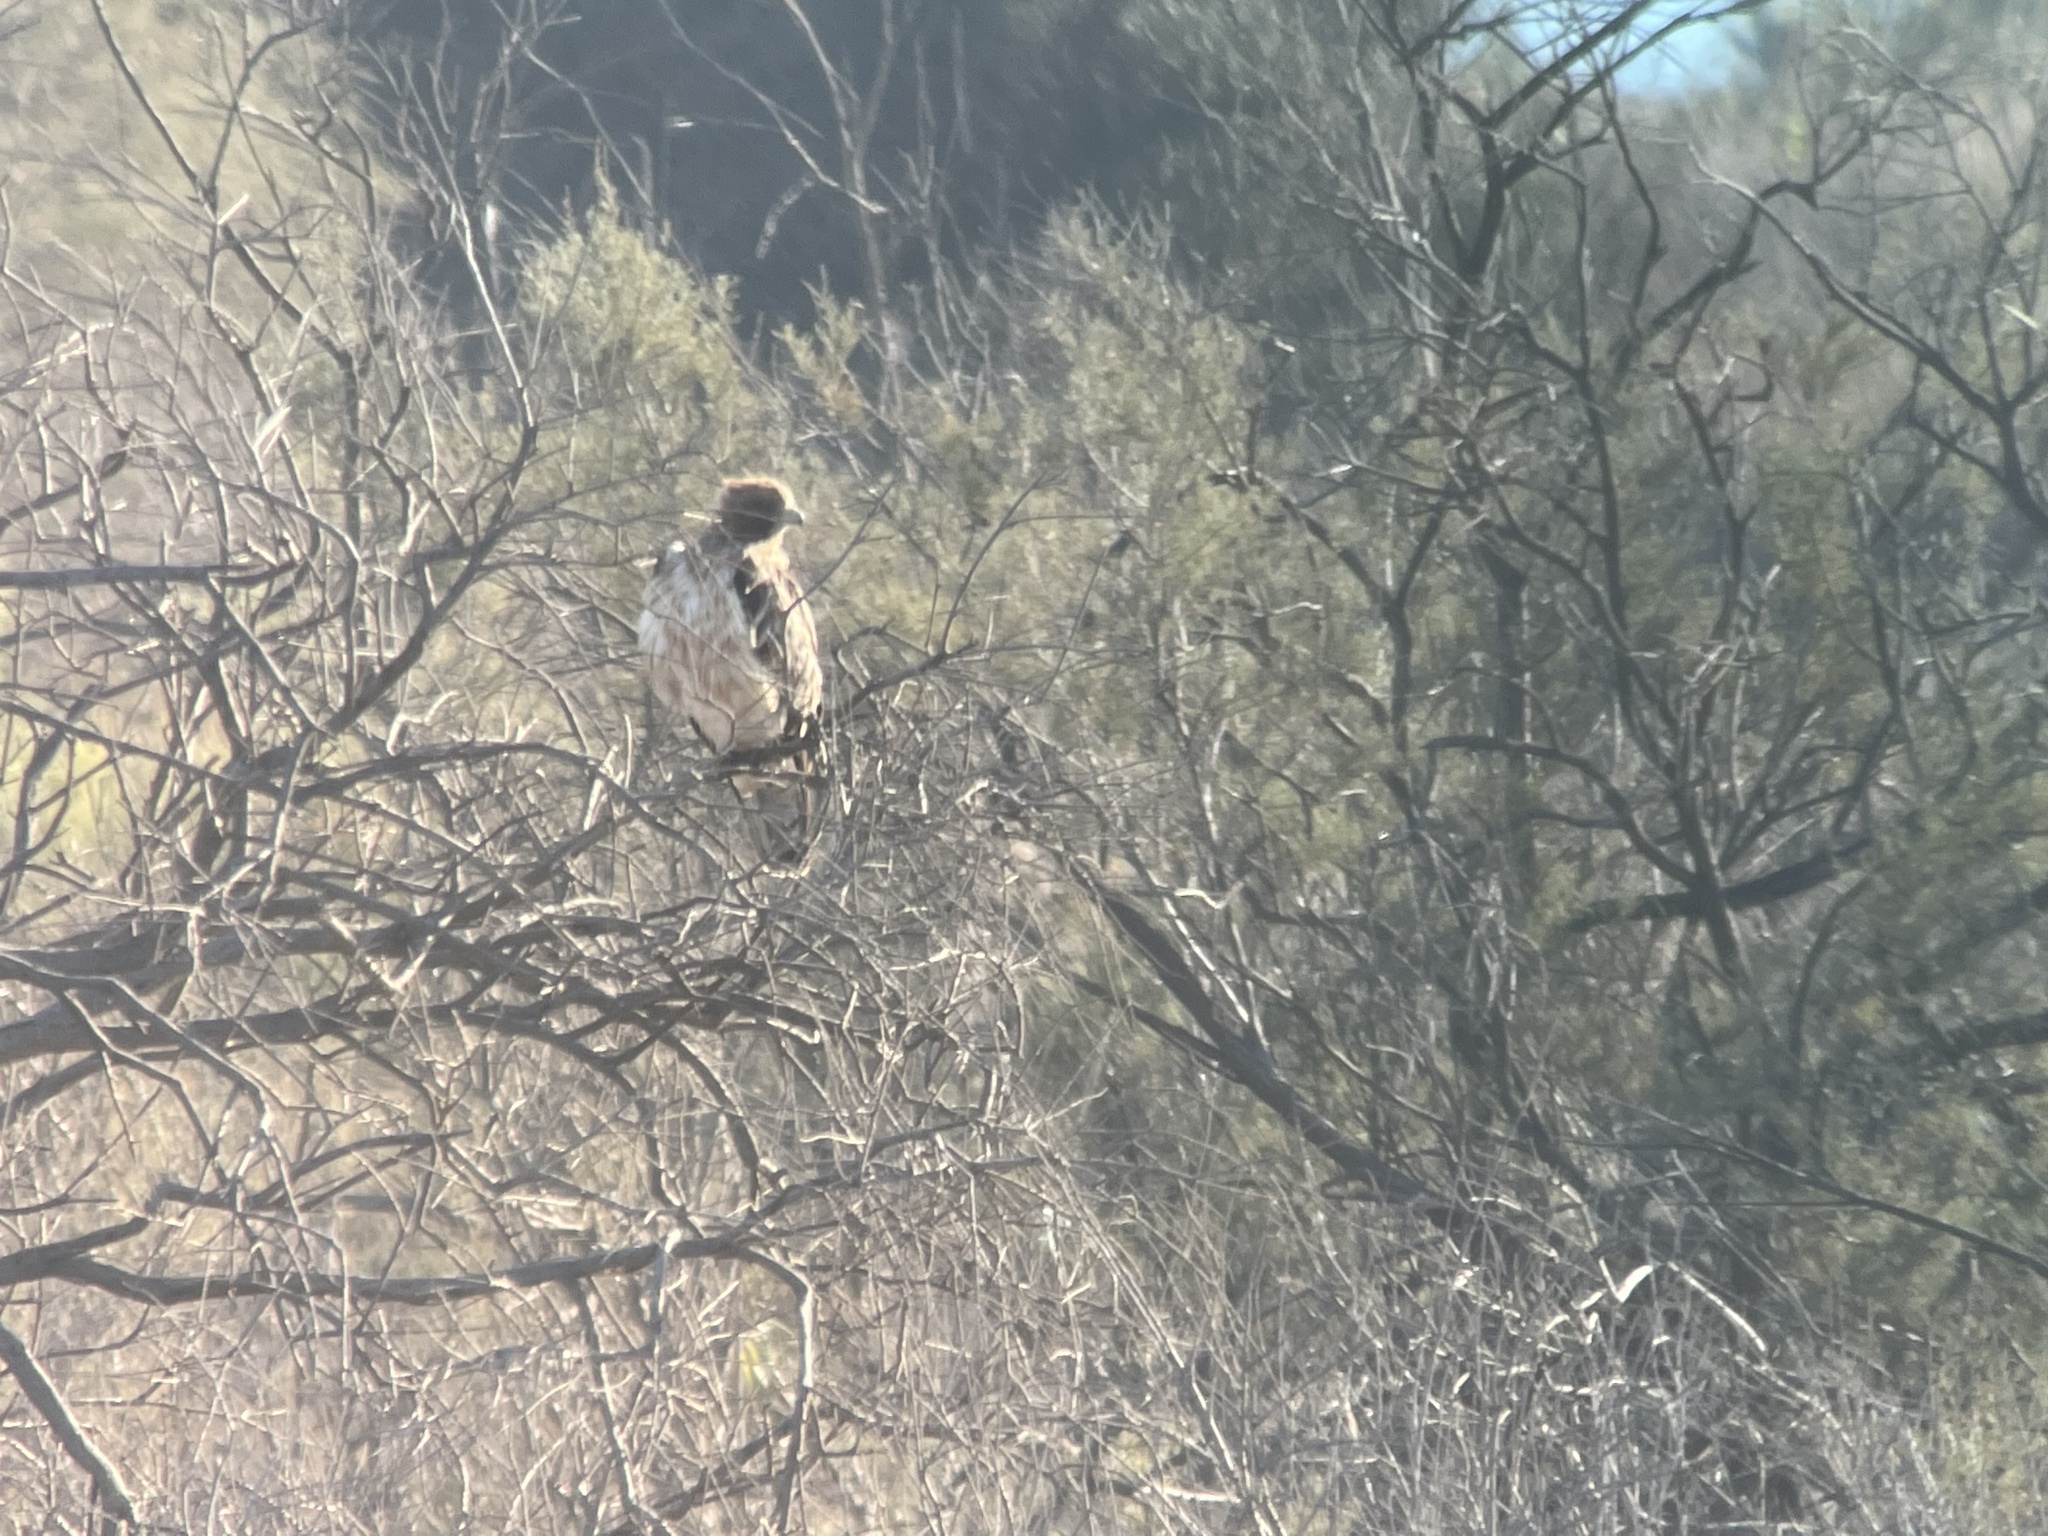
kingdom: Animalia
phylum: Chordata
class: Aves
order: Accipitriformes
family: Accipitridae
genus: Hieraaetus
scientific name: Hieraaetus pennatus
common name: Booted eagle
